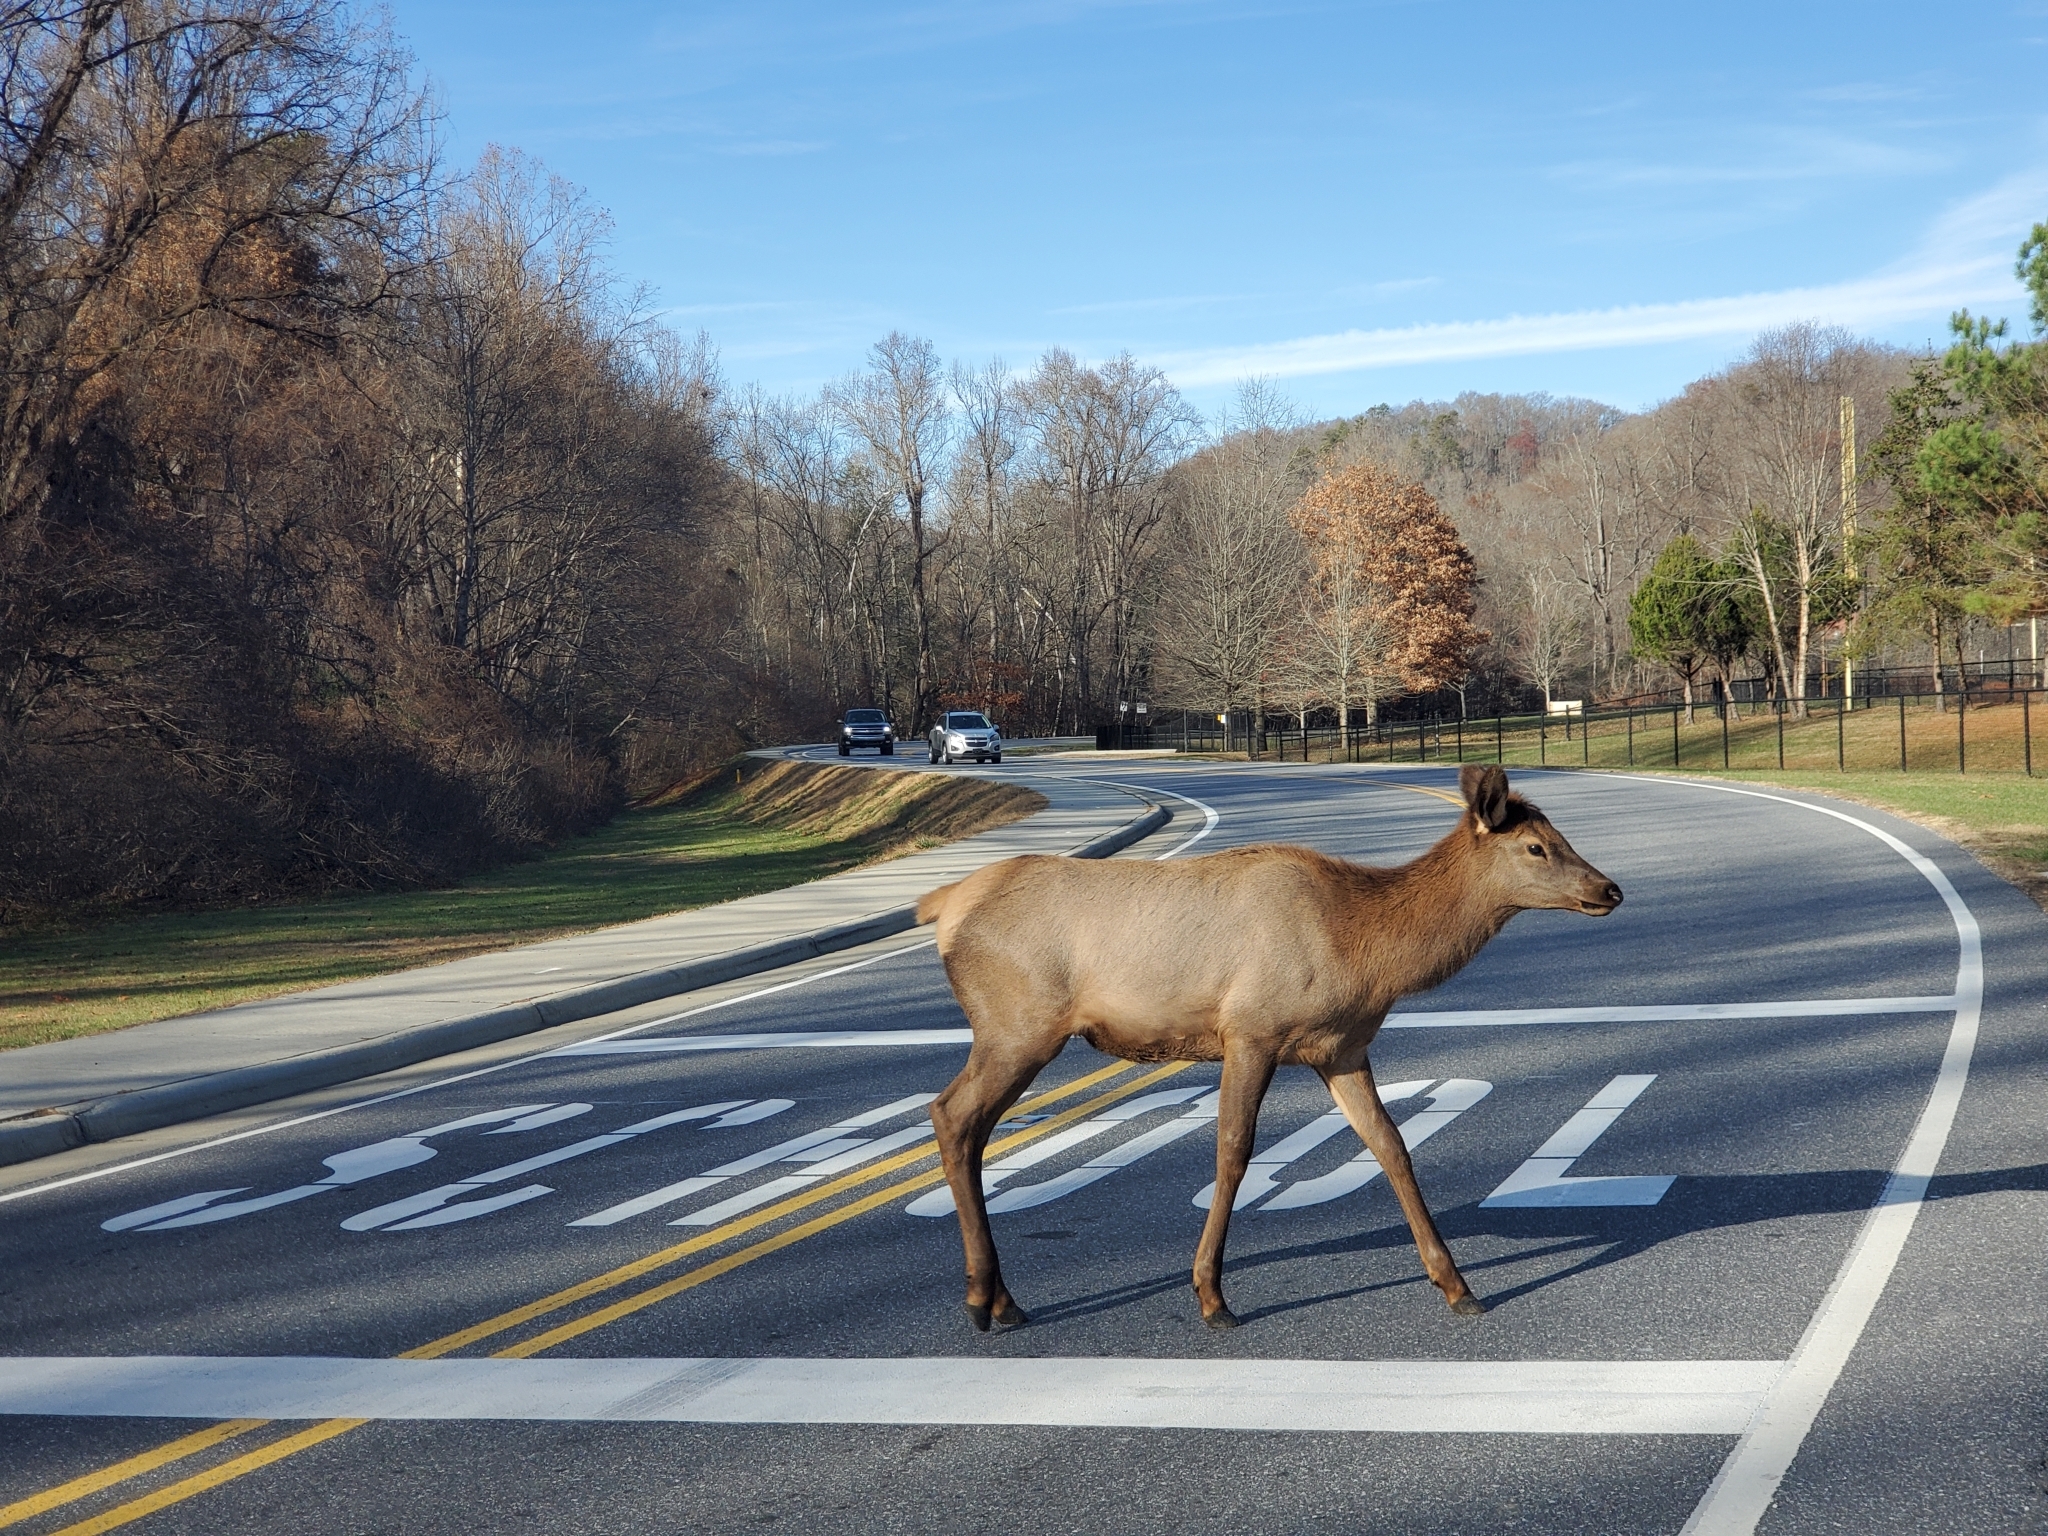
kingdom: Animalia
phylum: Chordata
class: Mammalia
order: Artiodactyla
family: Cervidae
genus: Cervus
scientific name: Cervus elaphus
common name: Red deer
